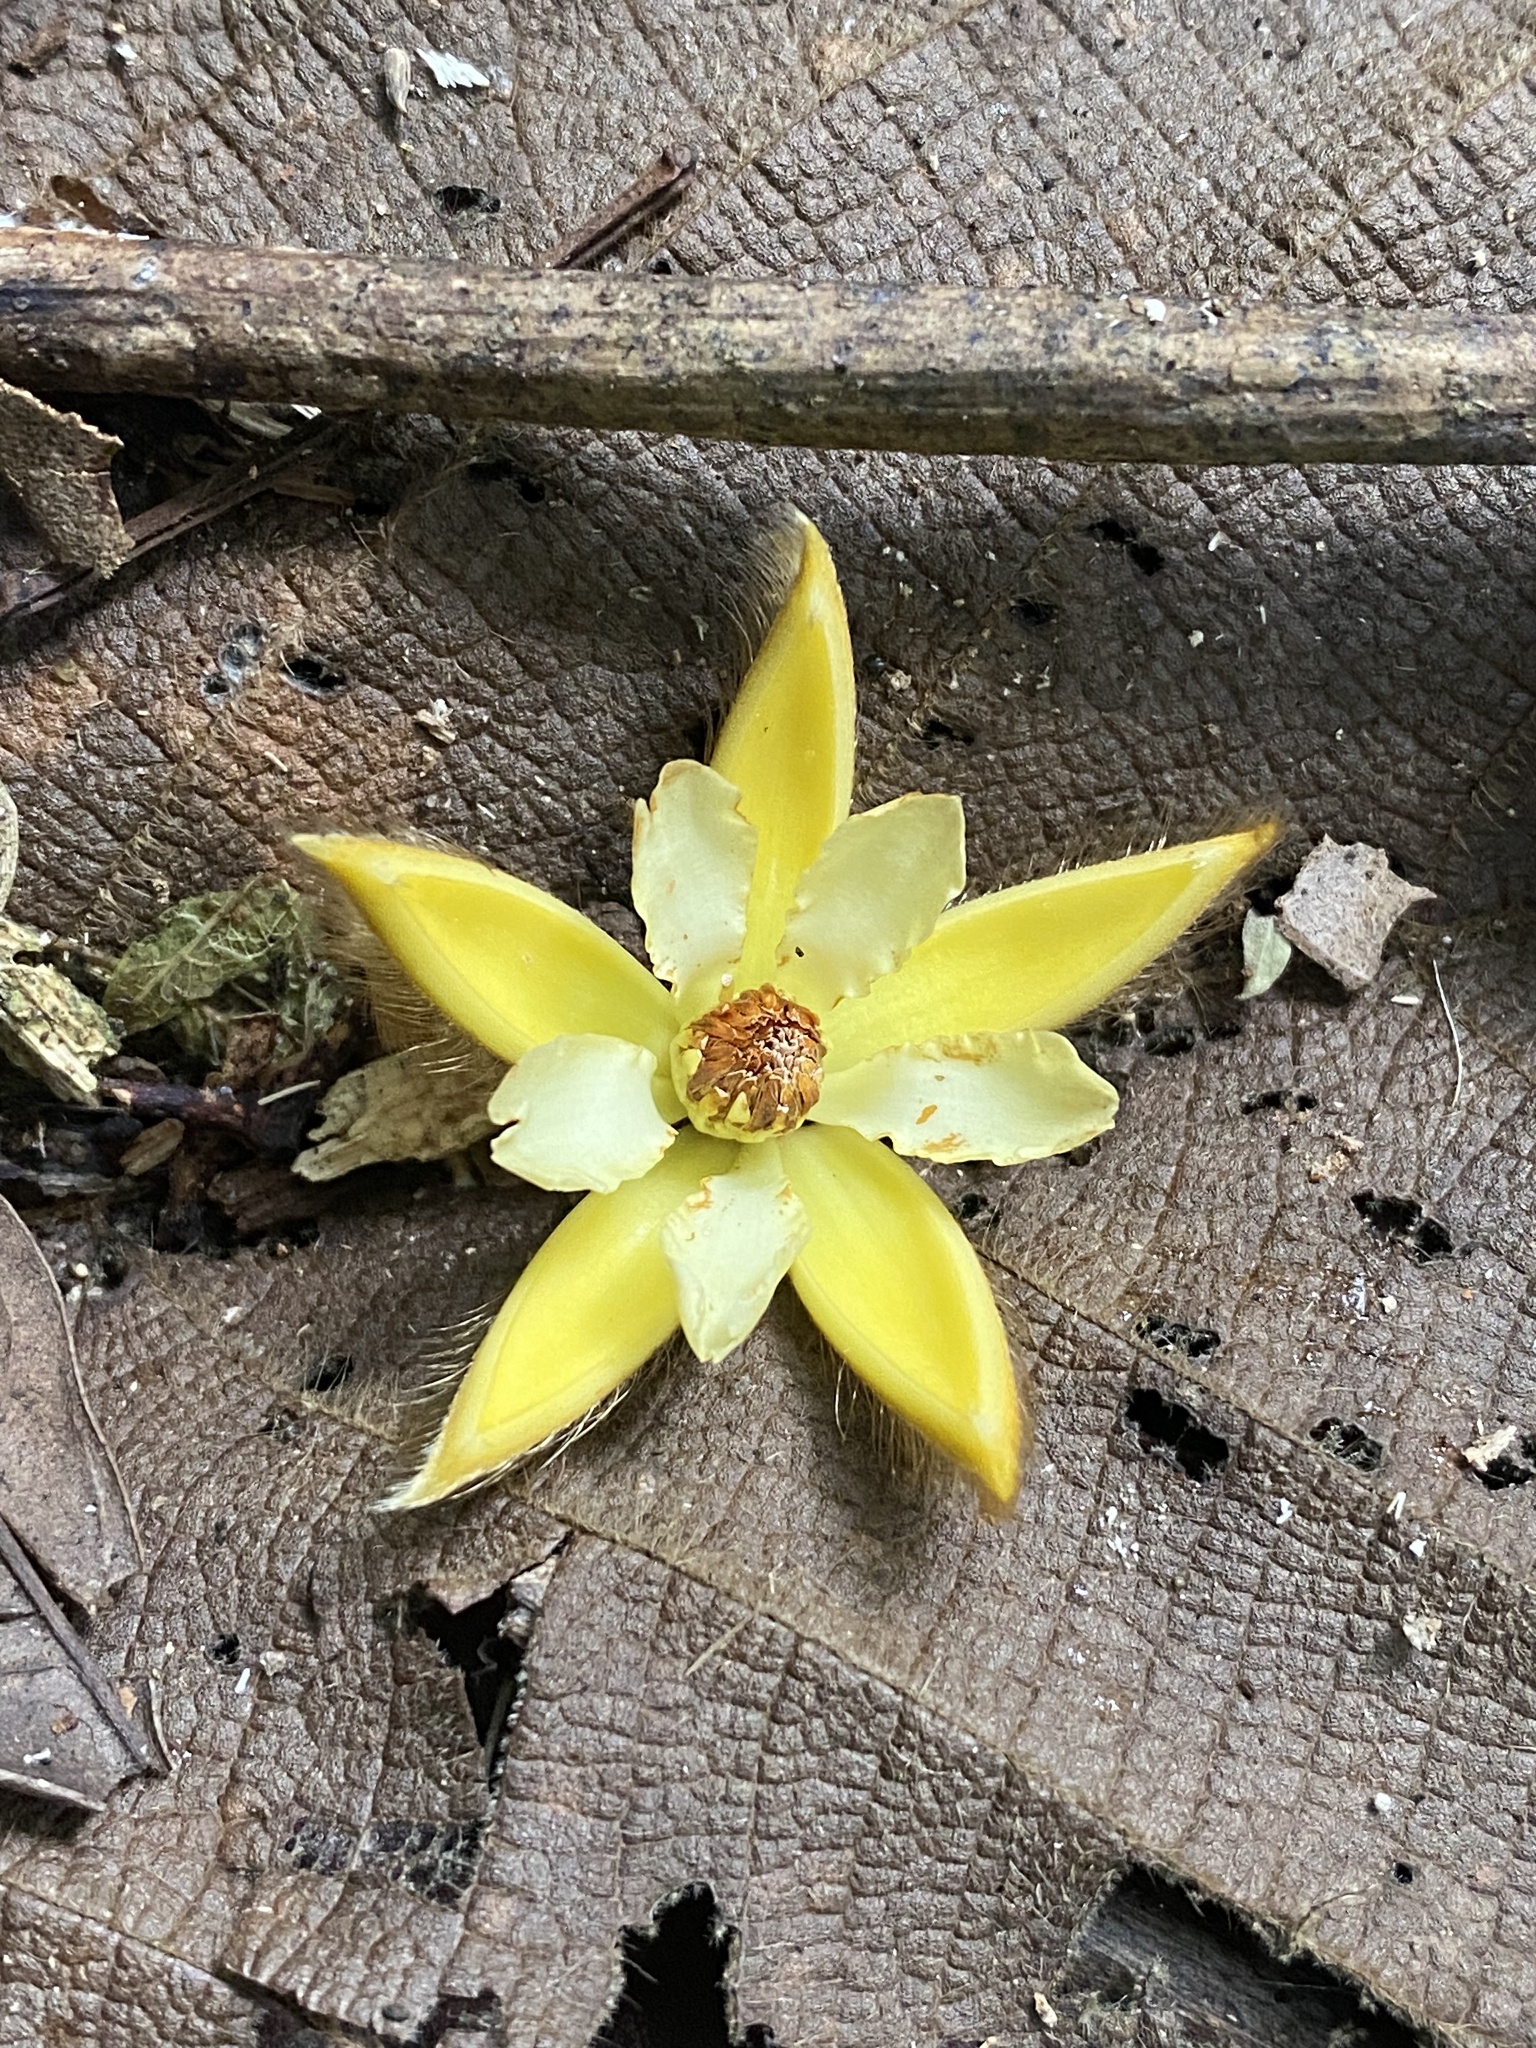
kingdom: Plantae
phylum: Tracheophyta
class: Magnoliopsida
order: Malvales
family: Malvaceae
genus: Apeiba
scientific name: Apeiba membranacea
